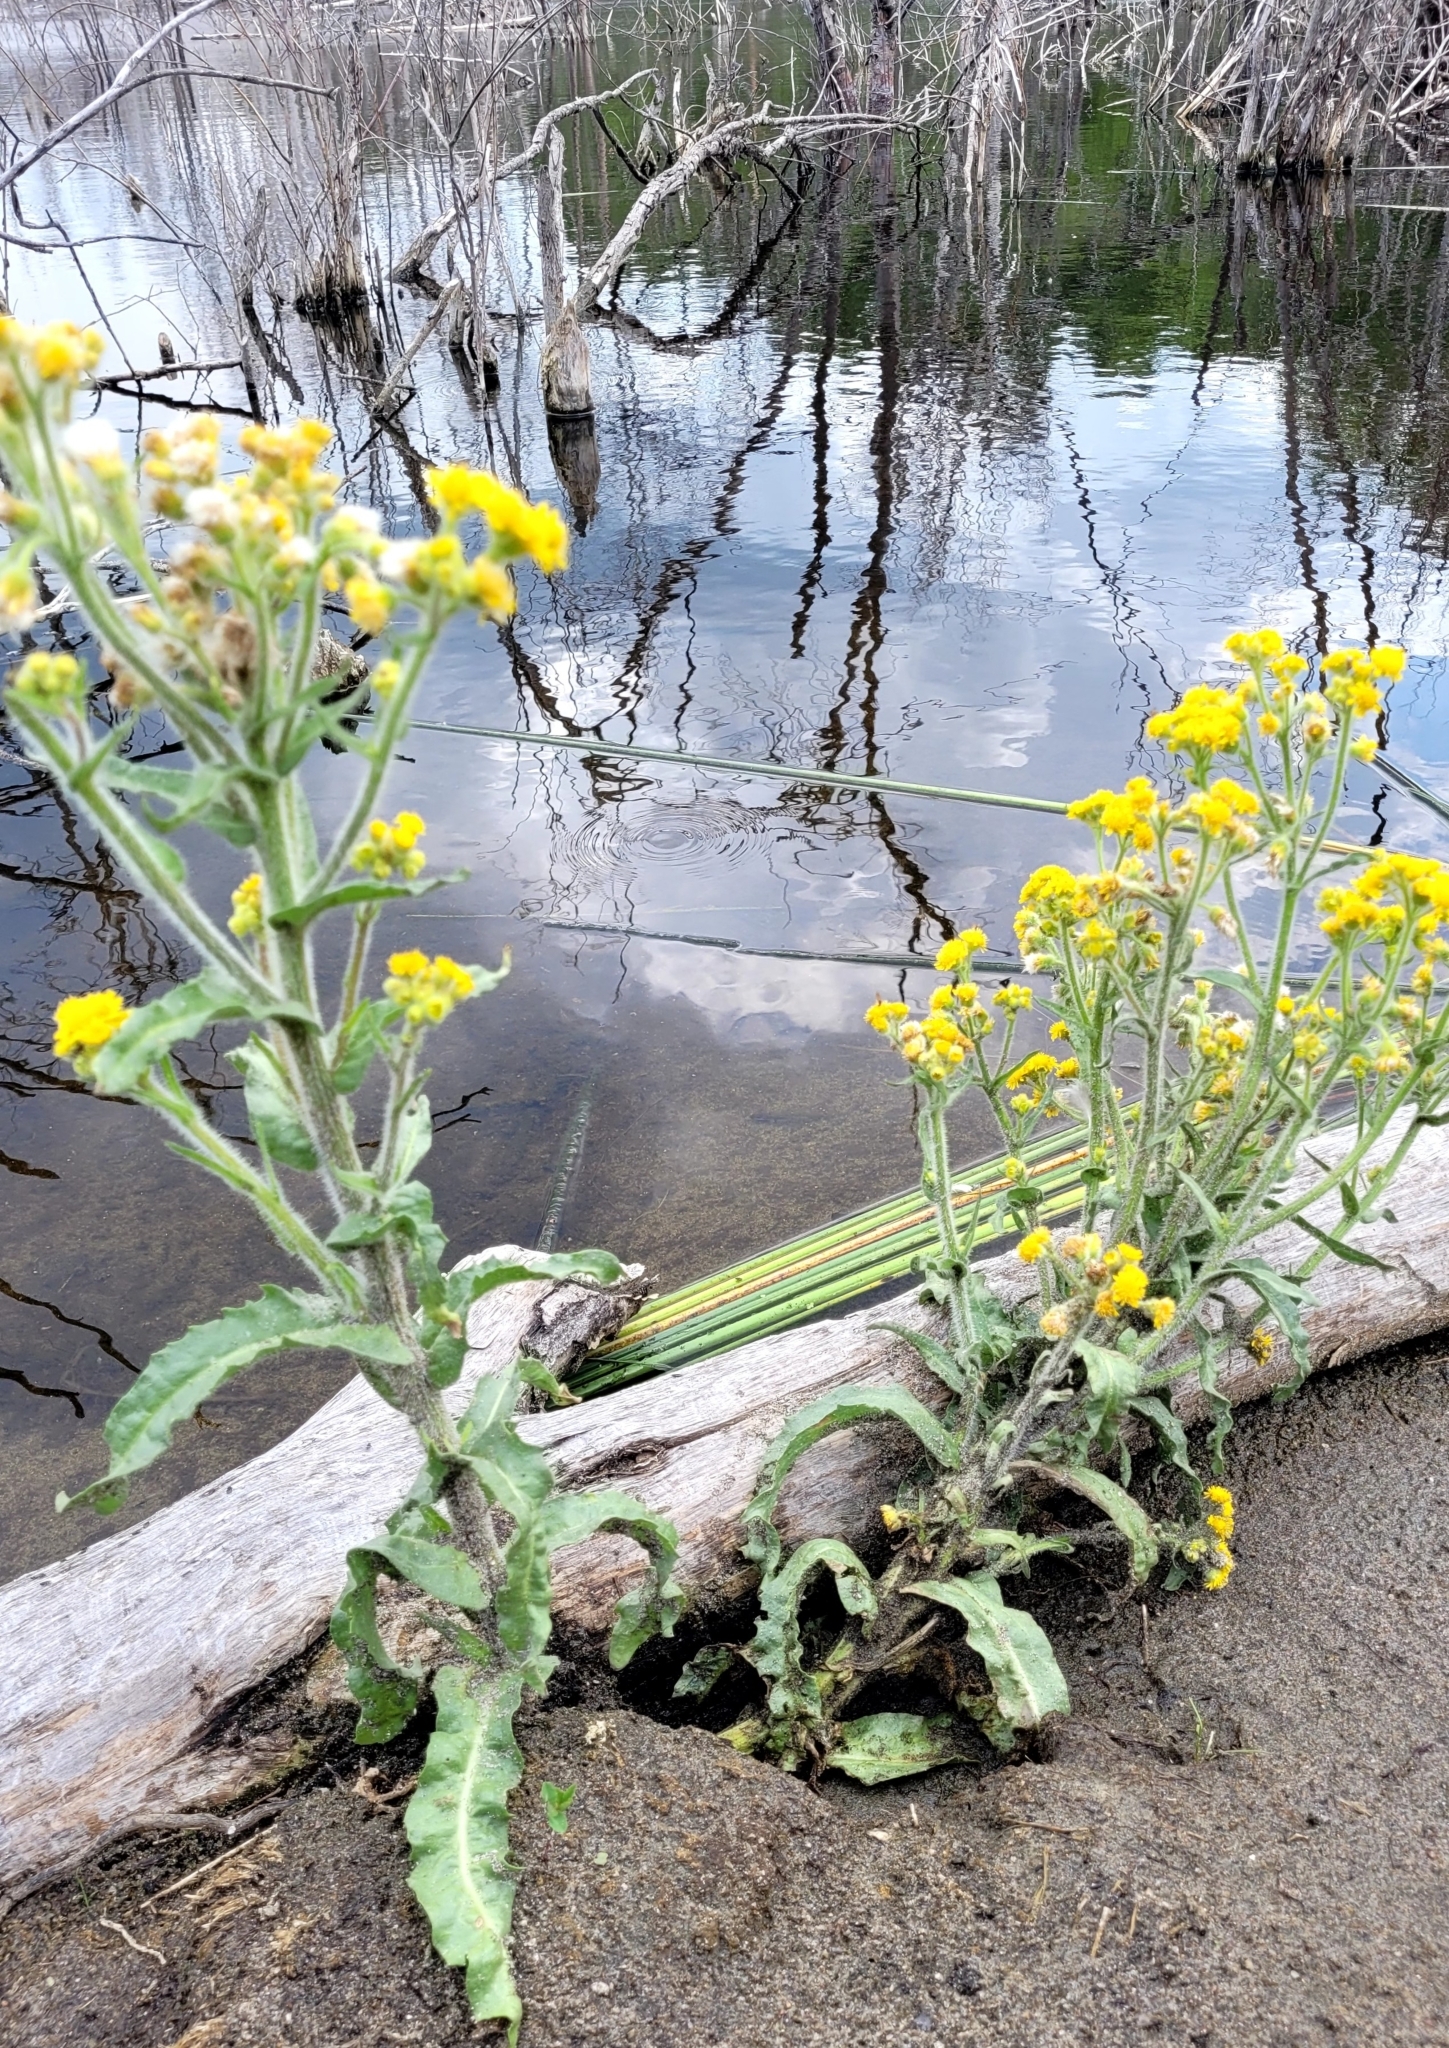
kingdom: Plantae
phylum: Tracheophyta
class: Magnoliopsida
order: Asterales
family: Asteraceae
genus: Tephroseris
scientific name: Tephroseris palustris
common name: Marsh fleawort
